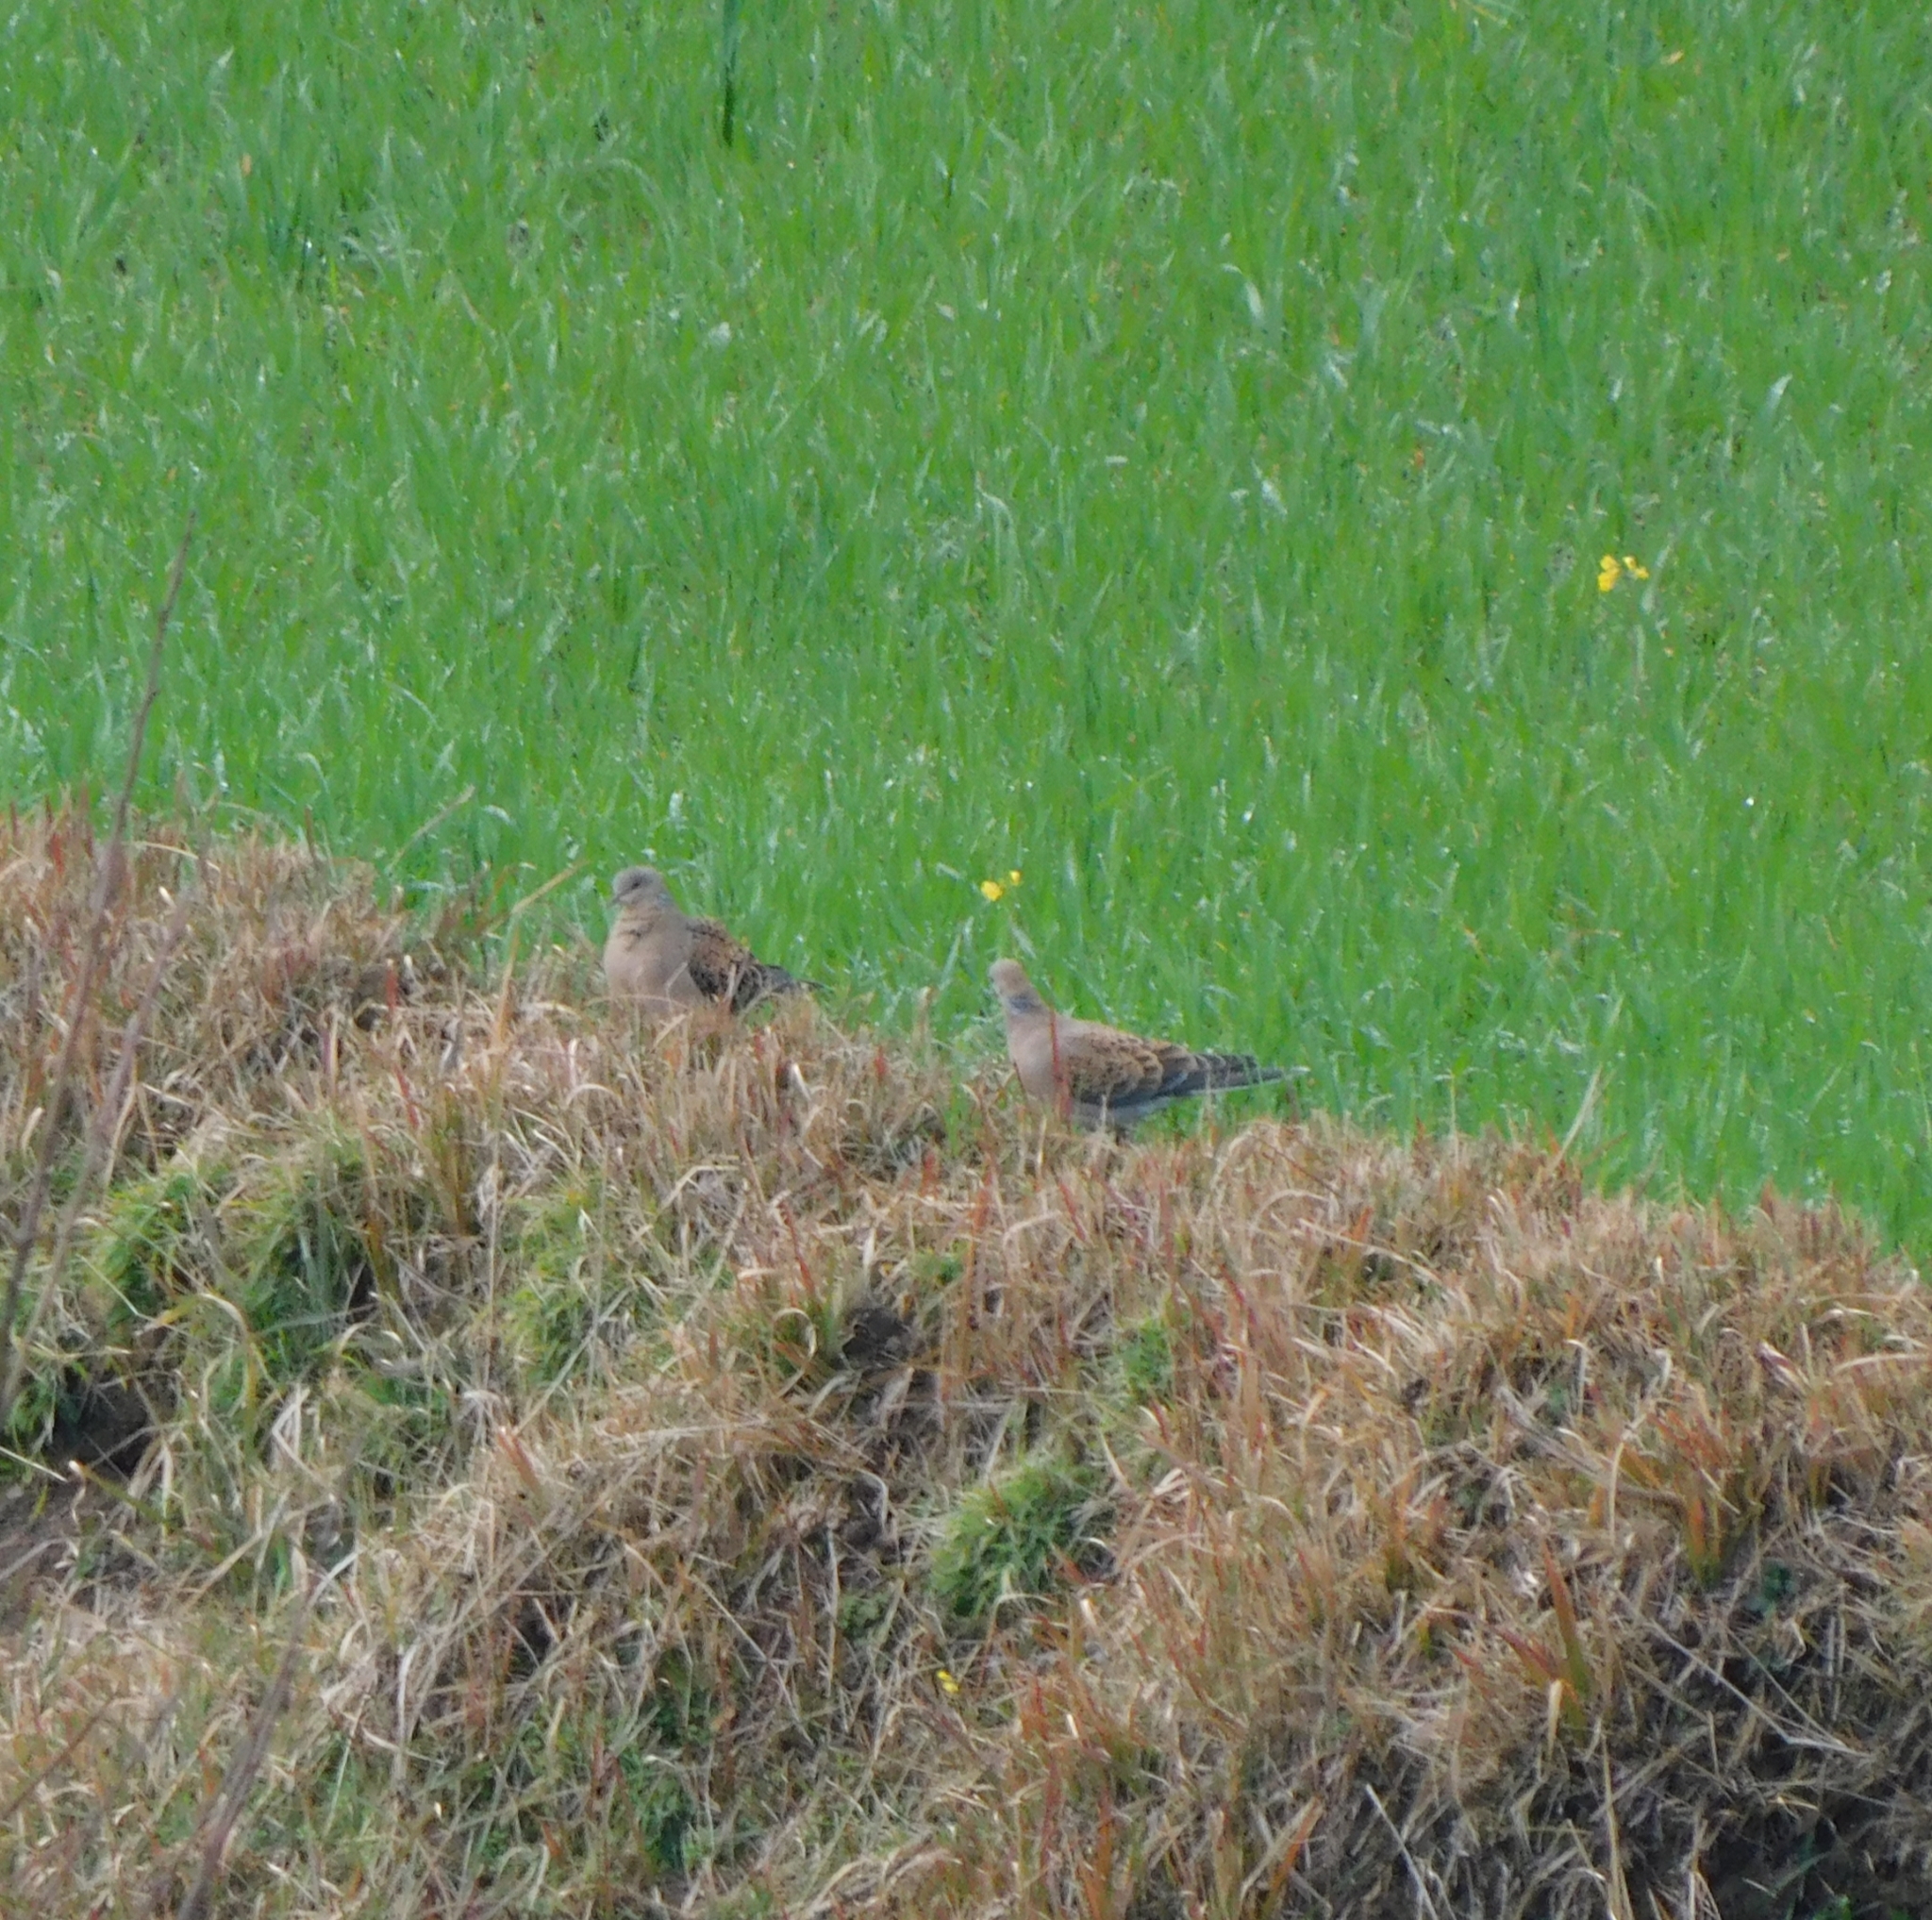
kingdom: Animalia
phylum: Chordata
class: Aves
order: Columbiformes
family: Columbidae
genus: Streptopelia
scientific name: Streptopelia orientalis
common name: Oriental turtle dove
